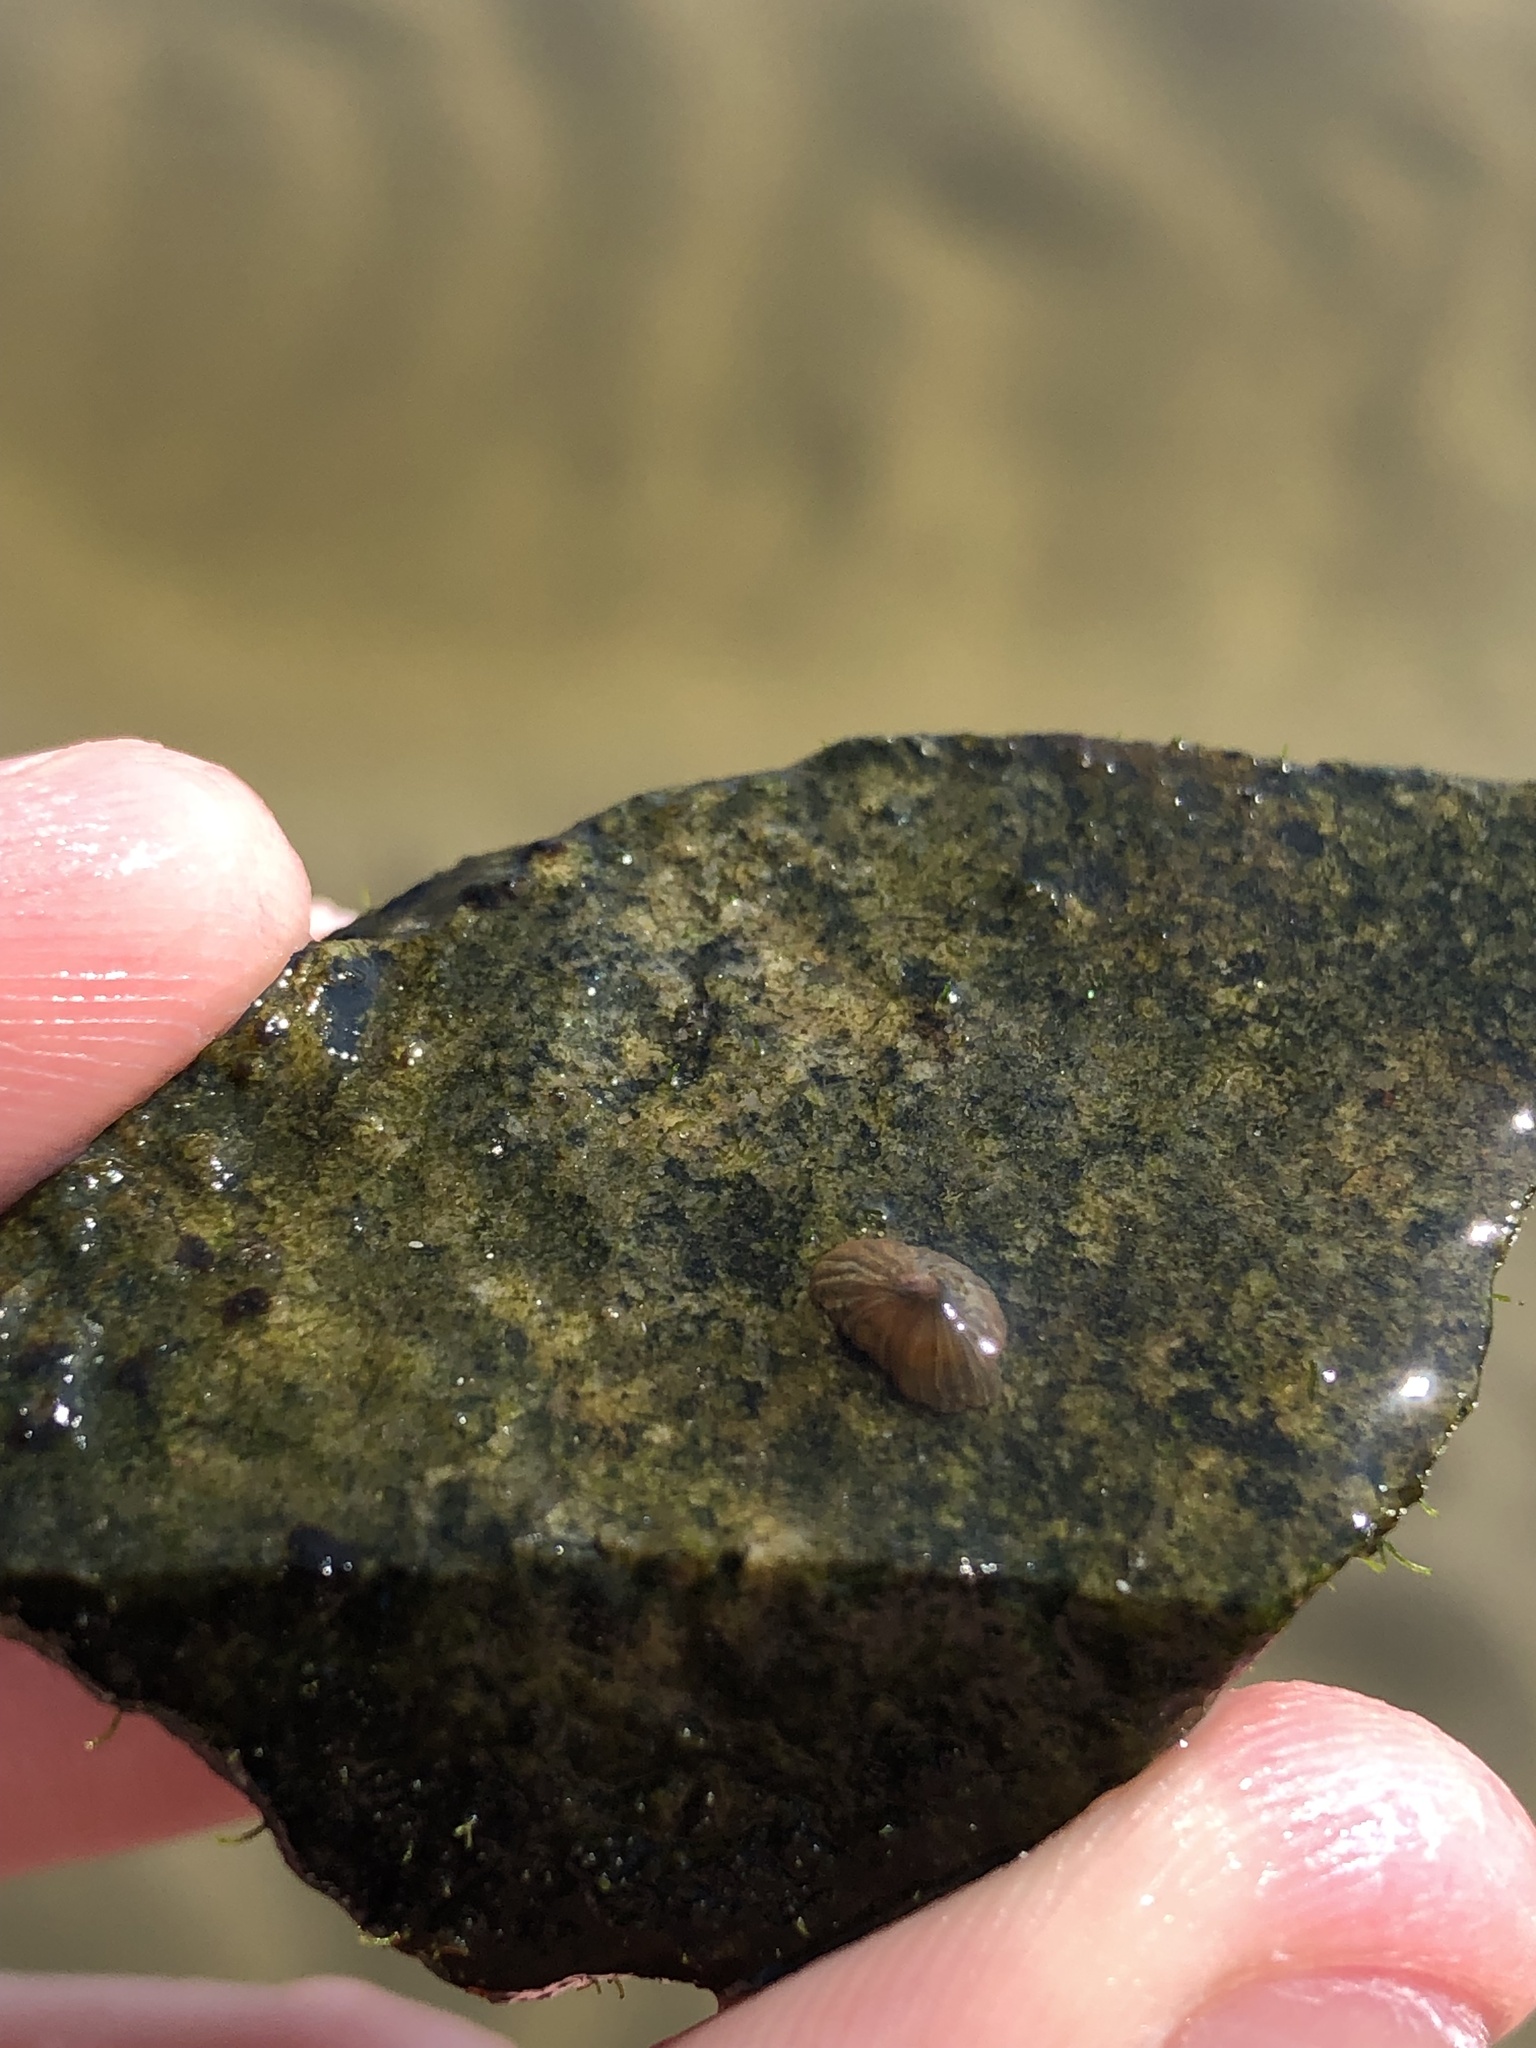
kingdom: Animalia
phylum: Cnidaria
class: Anthozoa
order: Actiniaria
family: Diadumenidae
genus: Diadumene
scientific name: Diadumene lineata
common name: Orange-striped anemone
